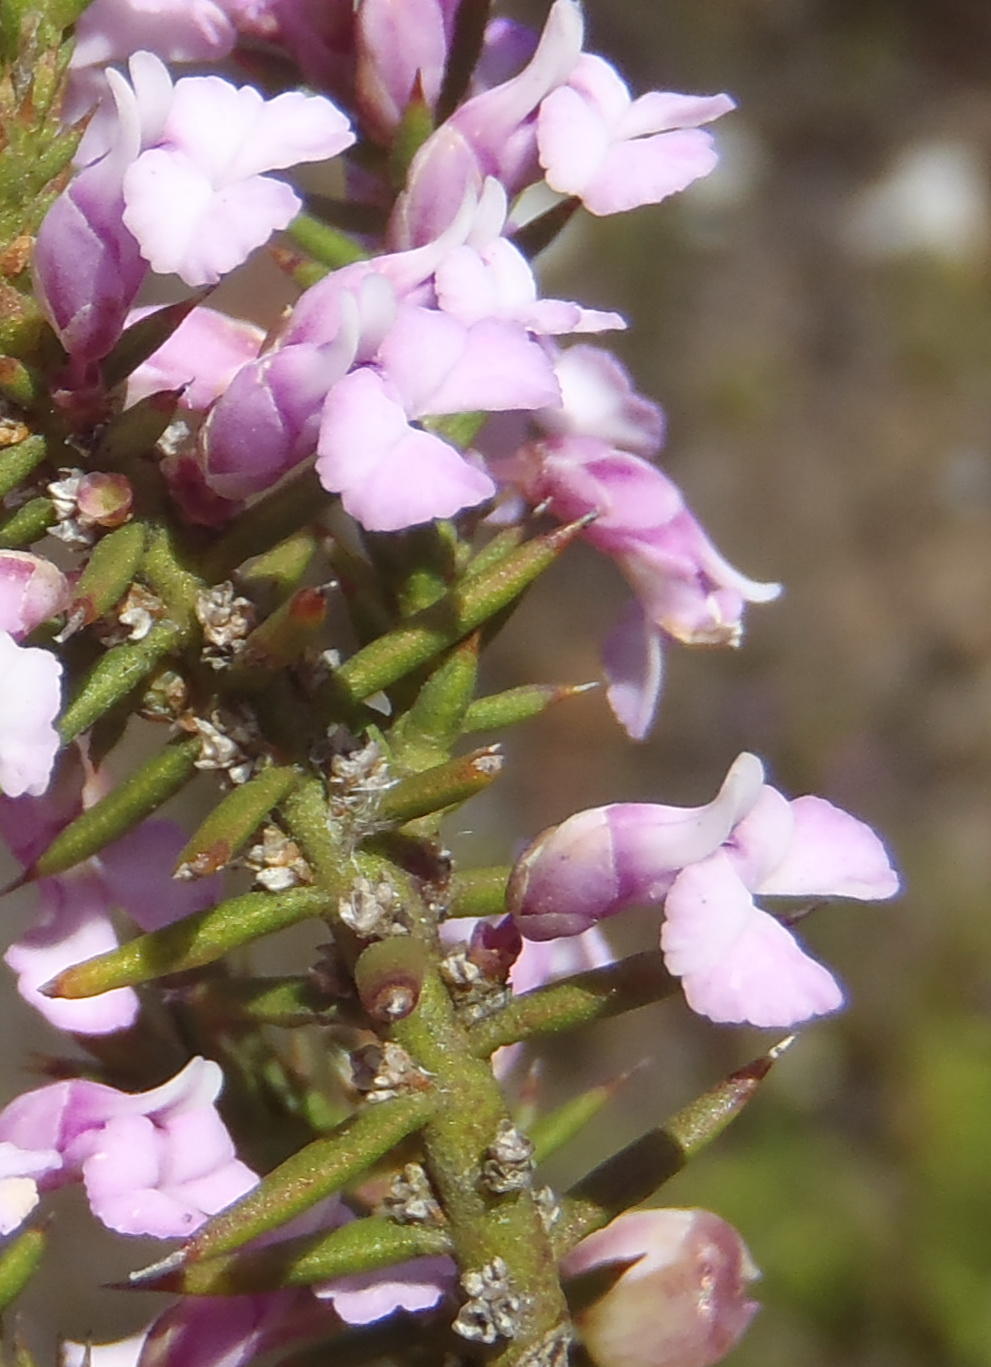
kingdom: Plantae
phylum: Tracheophyta
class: Magnoliopsida
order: Fabales
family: Polygalaceae
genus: Muraltia
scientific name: Muraltia juniperifolia
